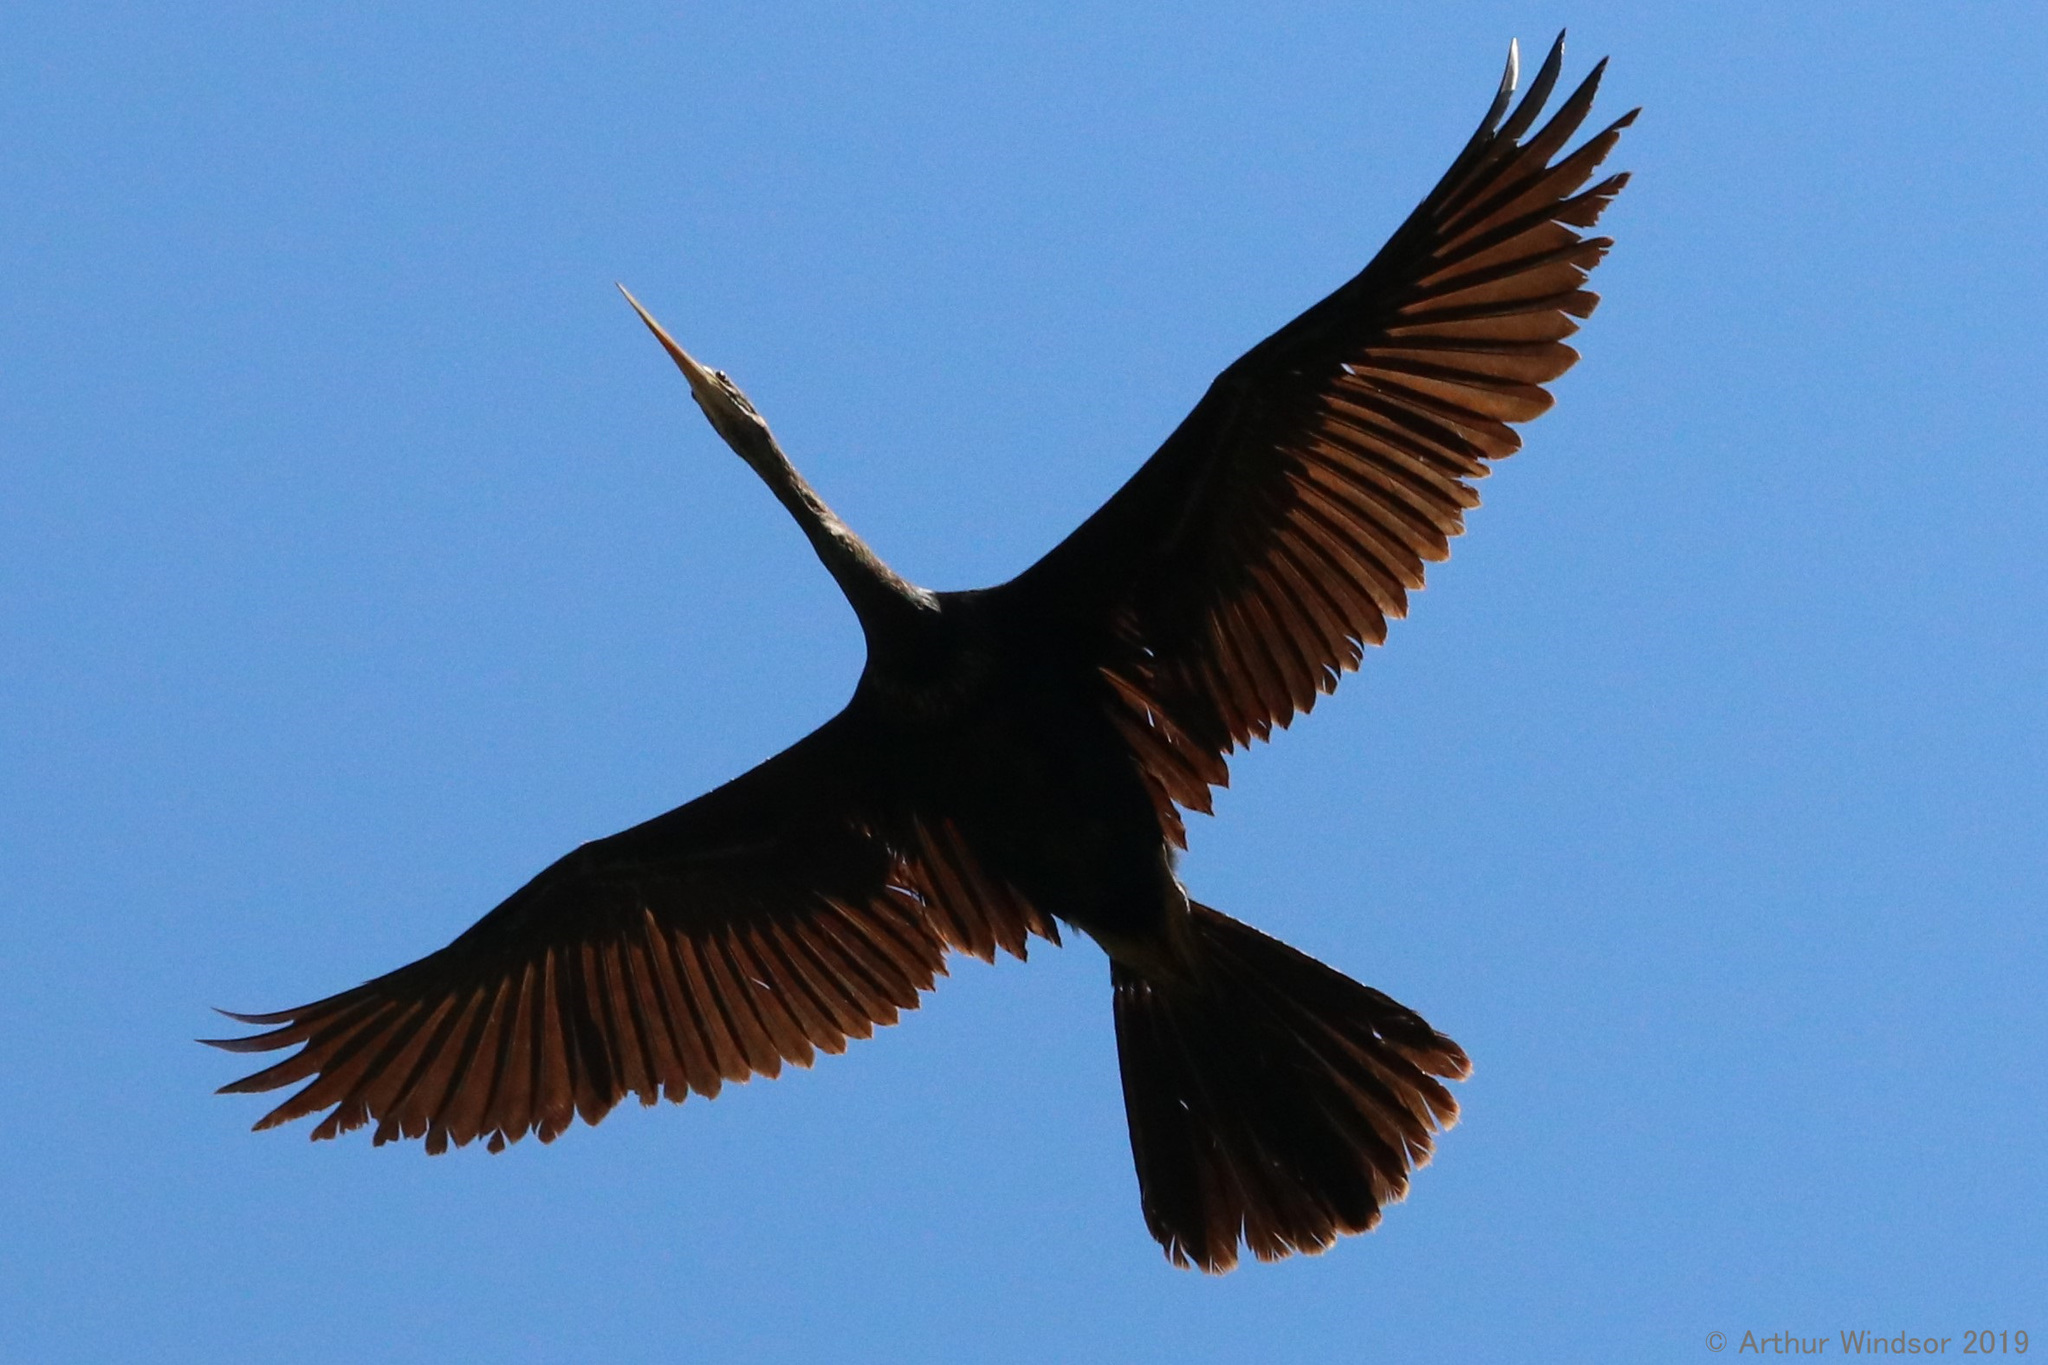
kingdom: Animalia
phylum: Chordata
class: Aves
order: Suliformes
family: Anhingidae
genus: Anhinga
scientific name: Anhinga anhinga
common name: Anhinga
